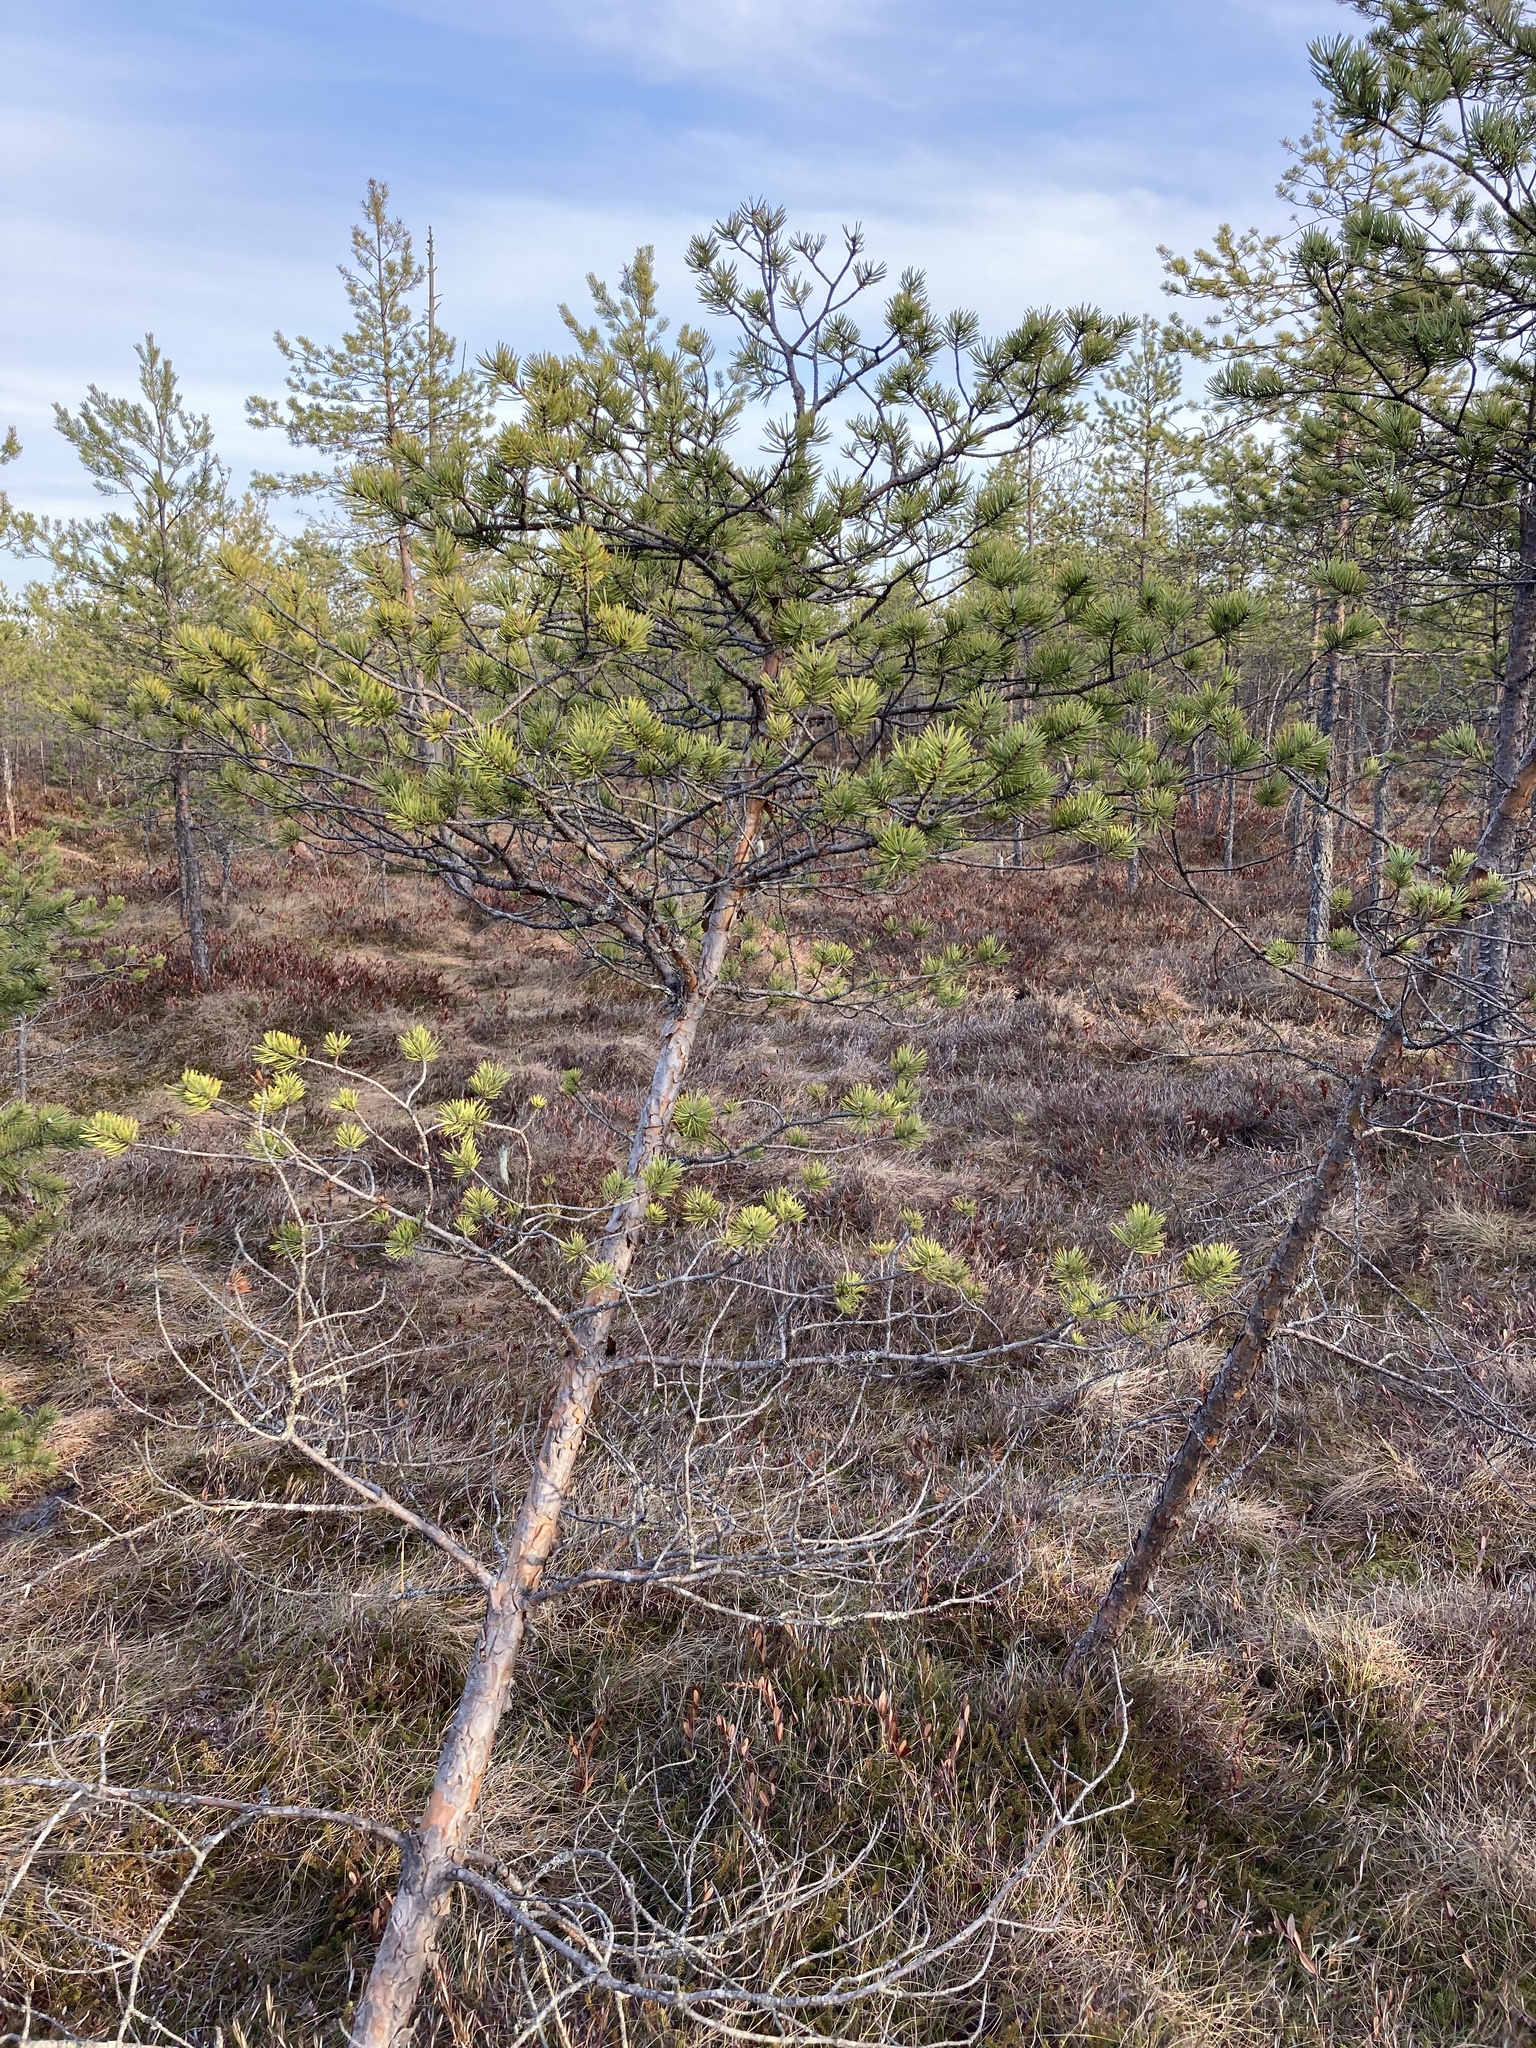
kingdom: Plantae
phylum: Tracheophyta
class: Pinopsida
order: Pinales
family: Pinaceae
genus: Pinus
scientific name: Pinus sylvestris
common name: Scots pine
